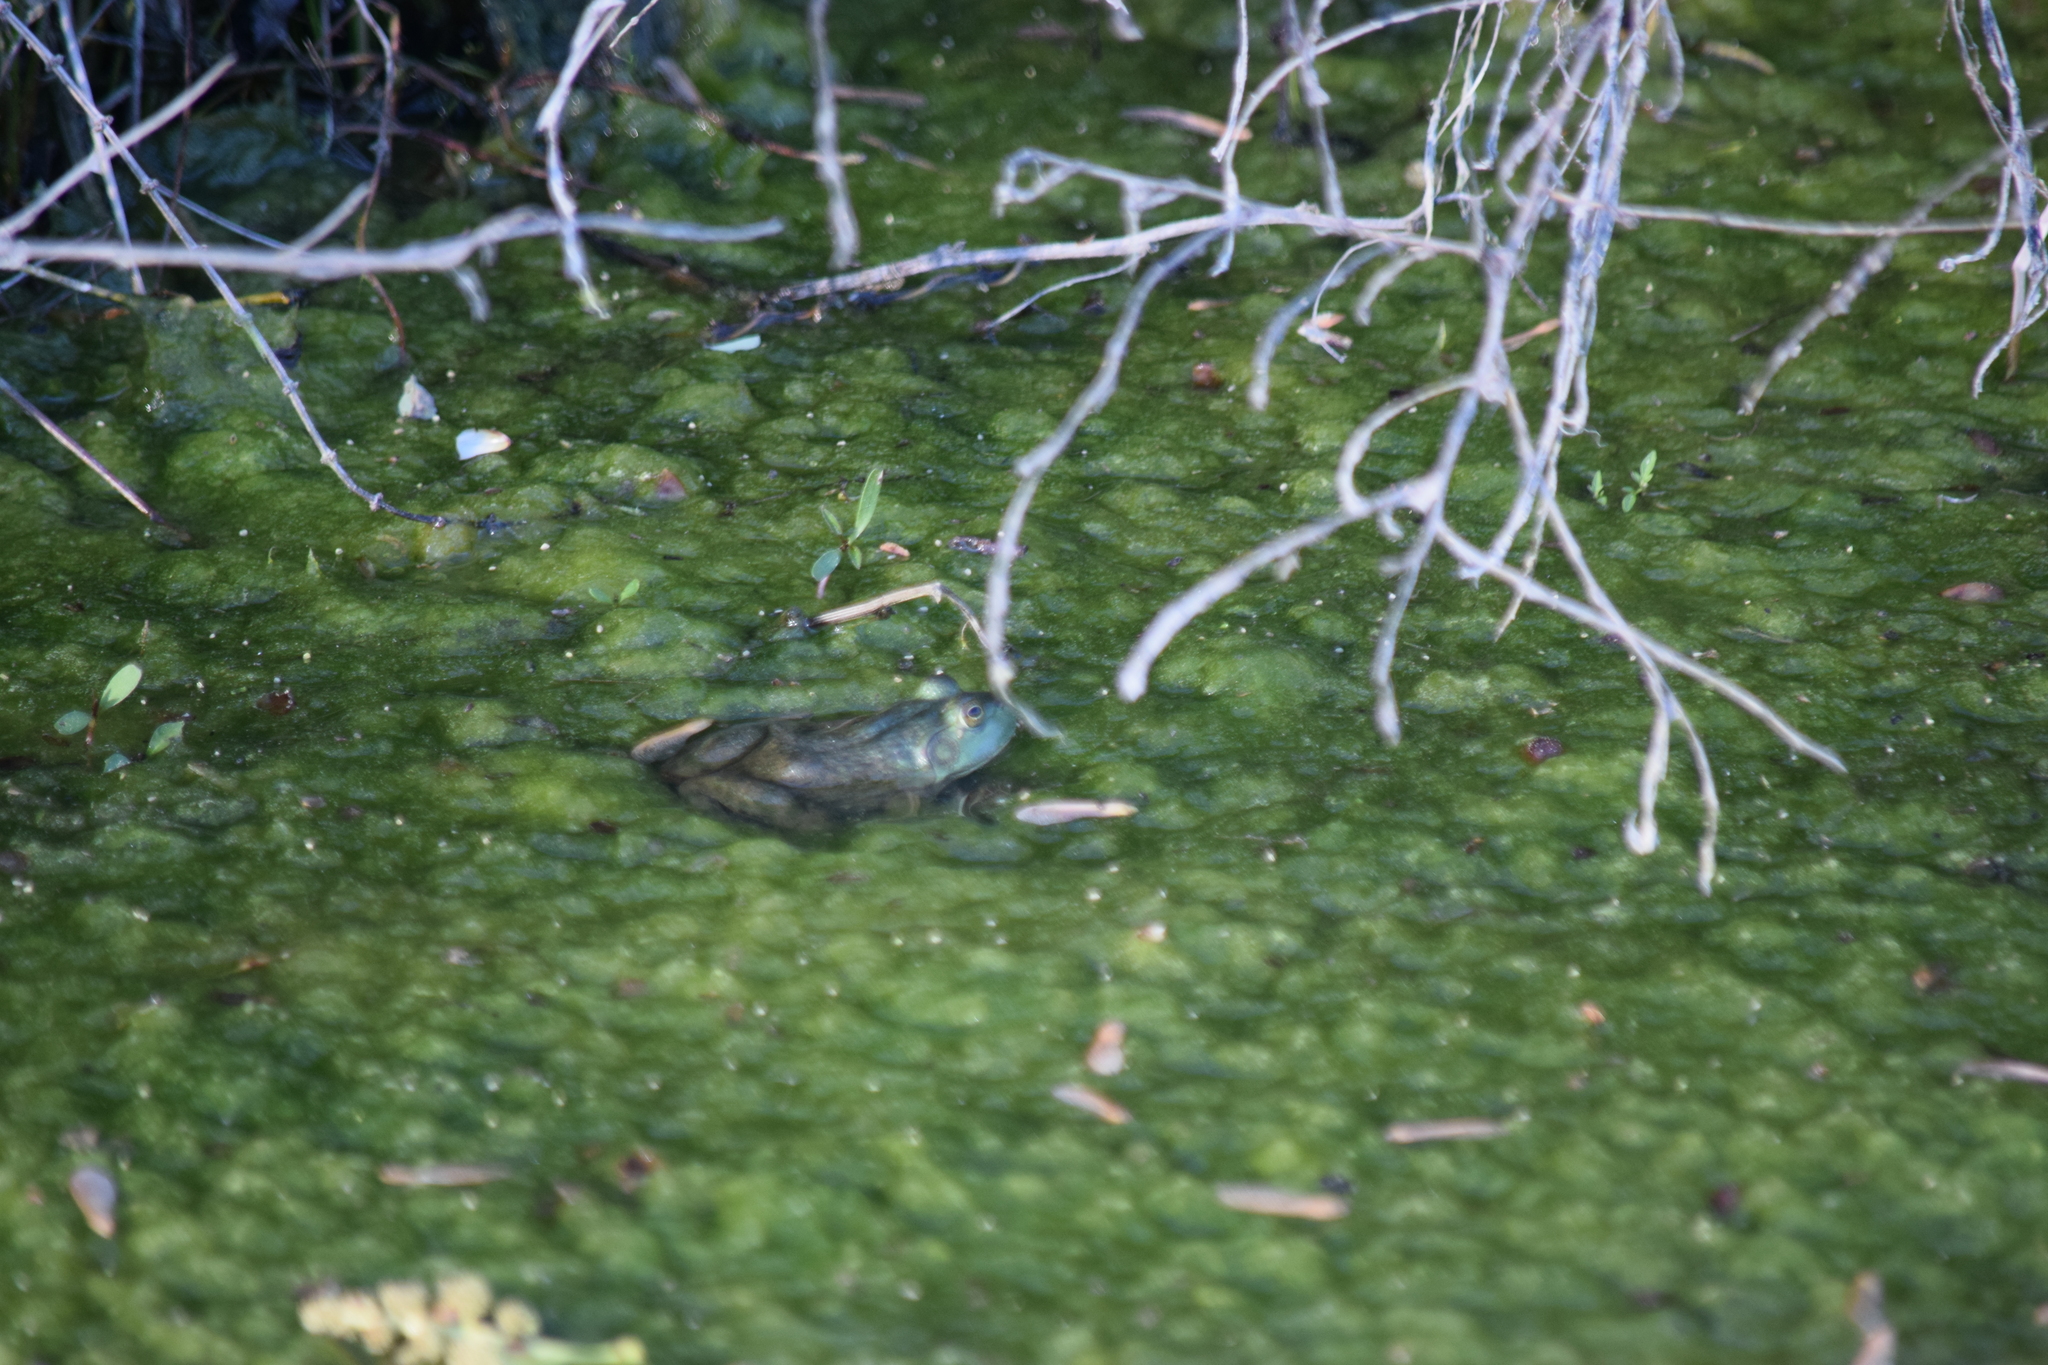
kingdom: Animalia
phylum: Chordata
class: Amphibia
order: Anura
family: Ranidae
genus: Lithobates
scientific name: Lithobates catesbeianus
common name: American bullfrog
